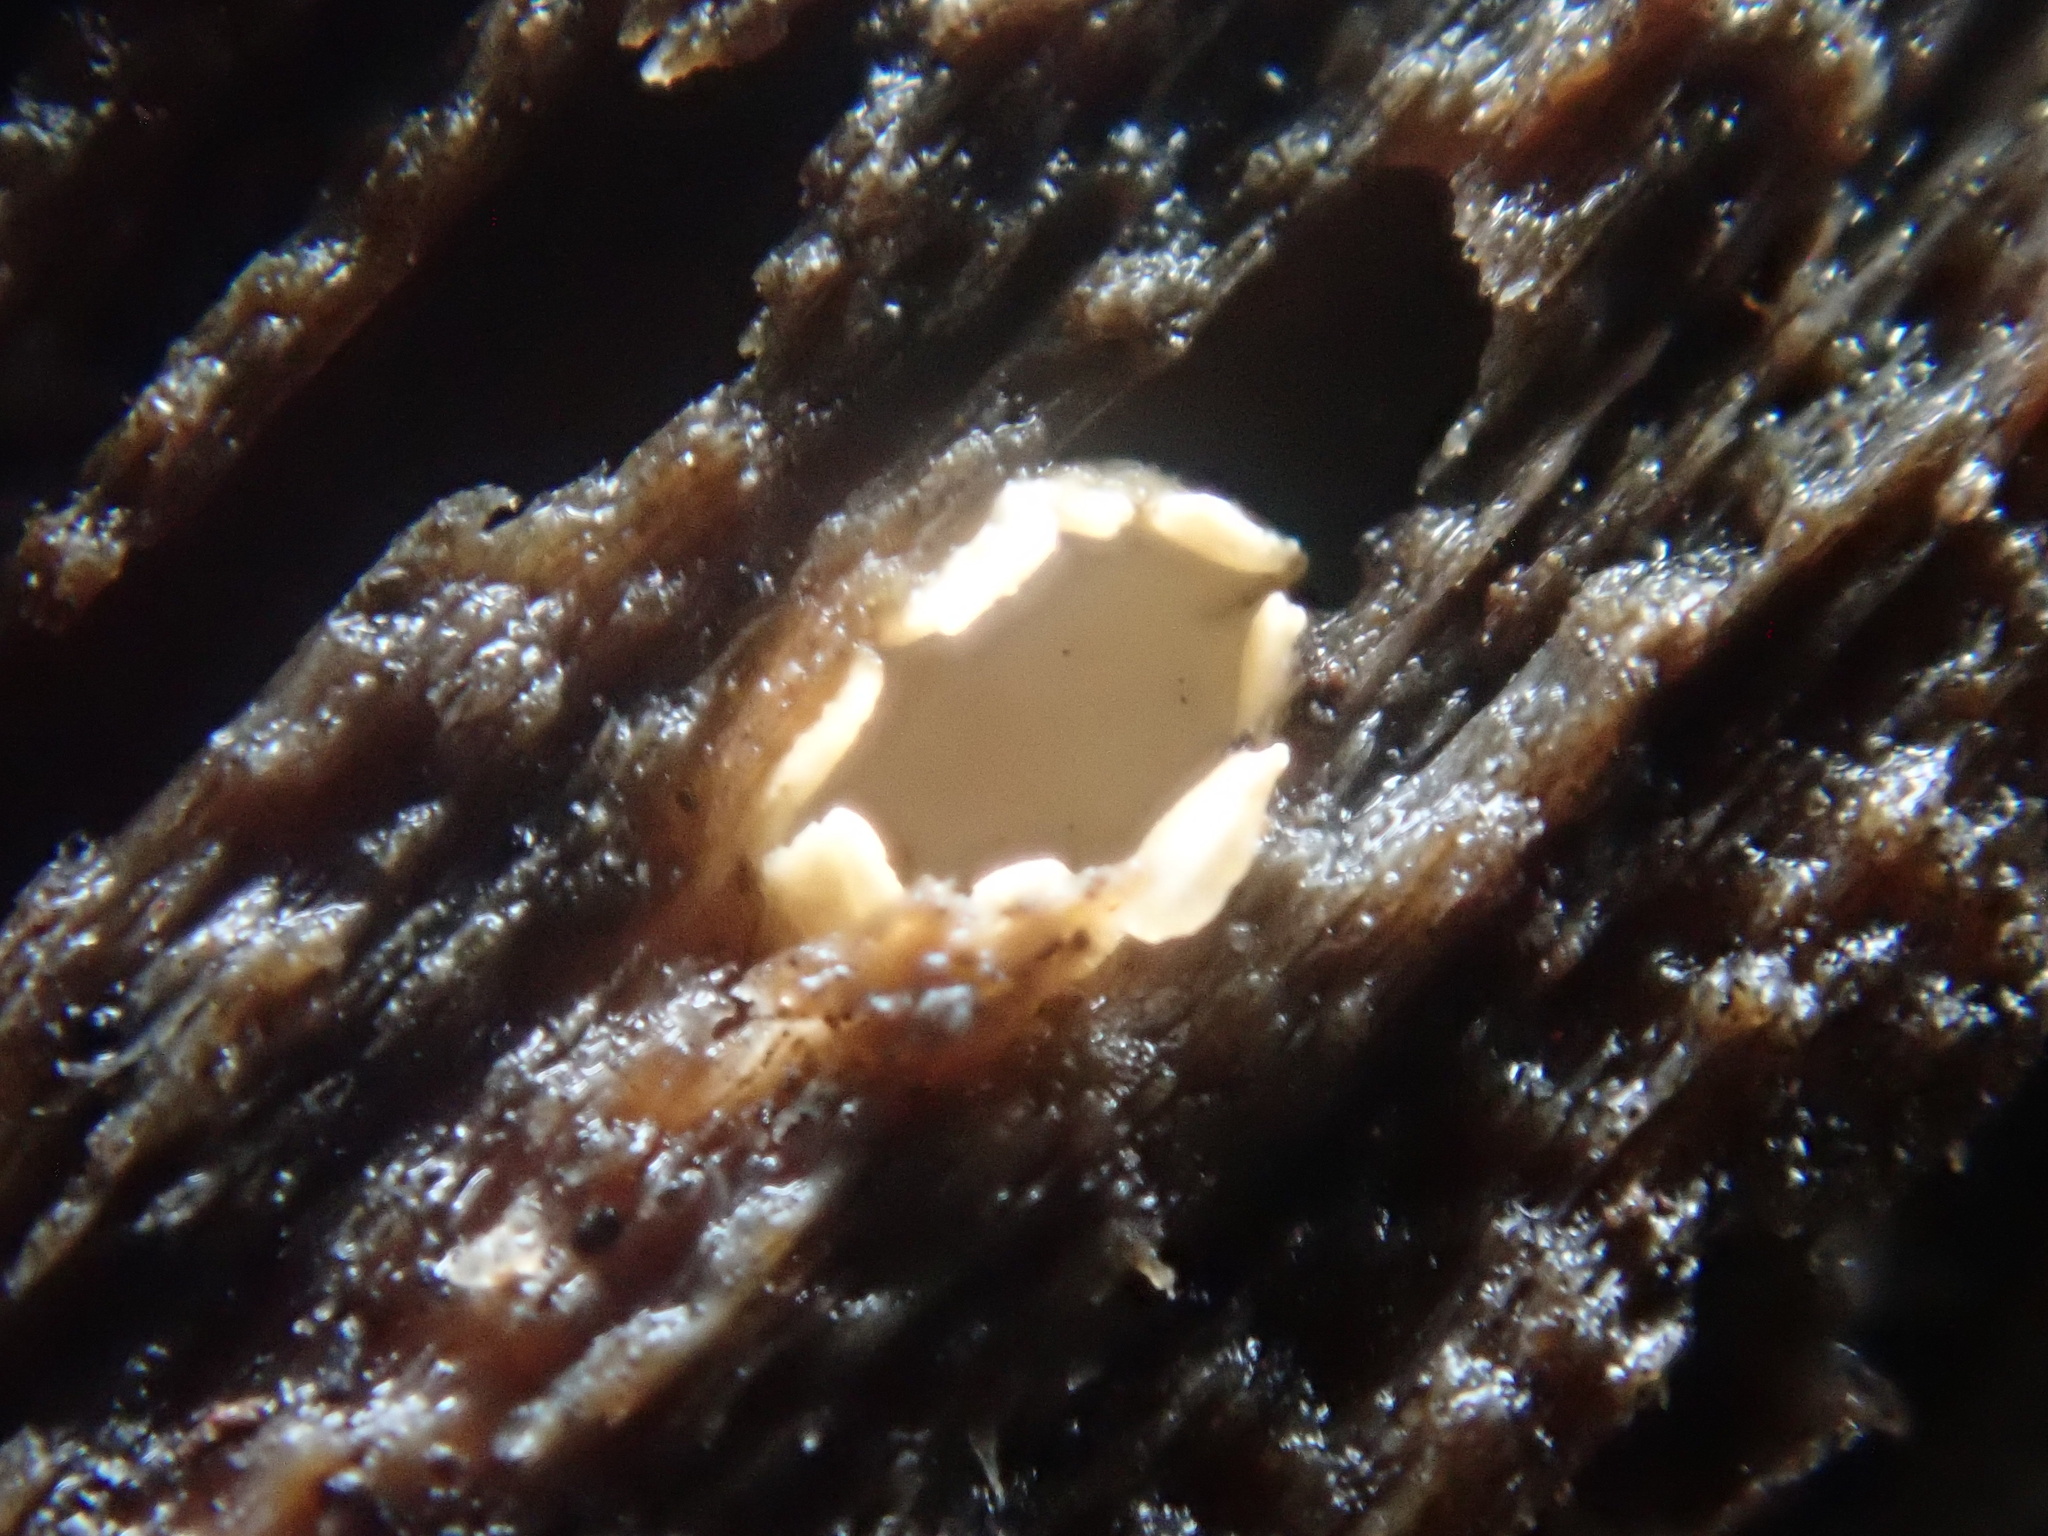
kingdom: Fungi
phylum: Basidiomycota
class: Agaricomycetes
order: Geastrales
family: Geastraceae
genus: Sphaerobolus
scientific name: Sphaerobolus stellatus
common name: Cannon fungus
